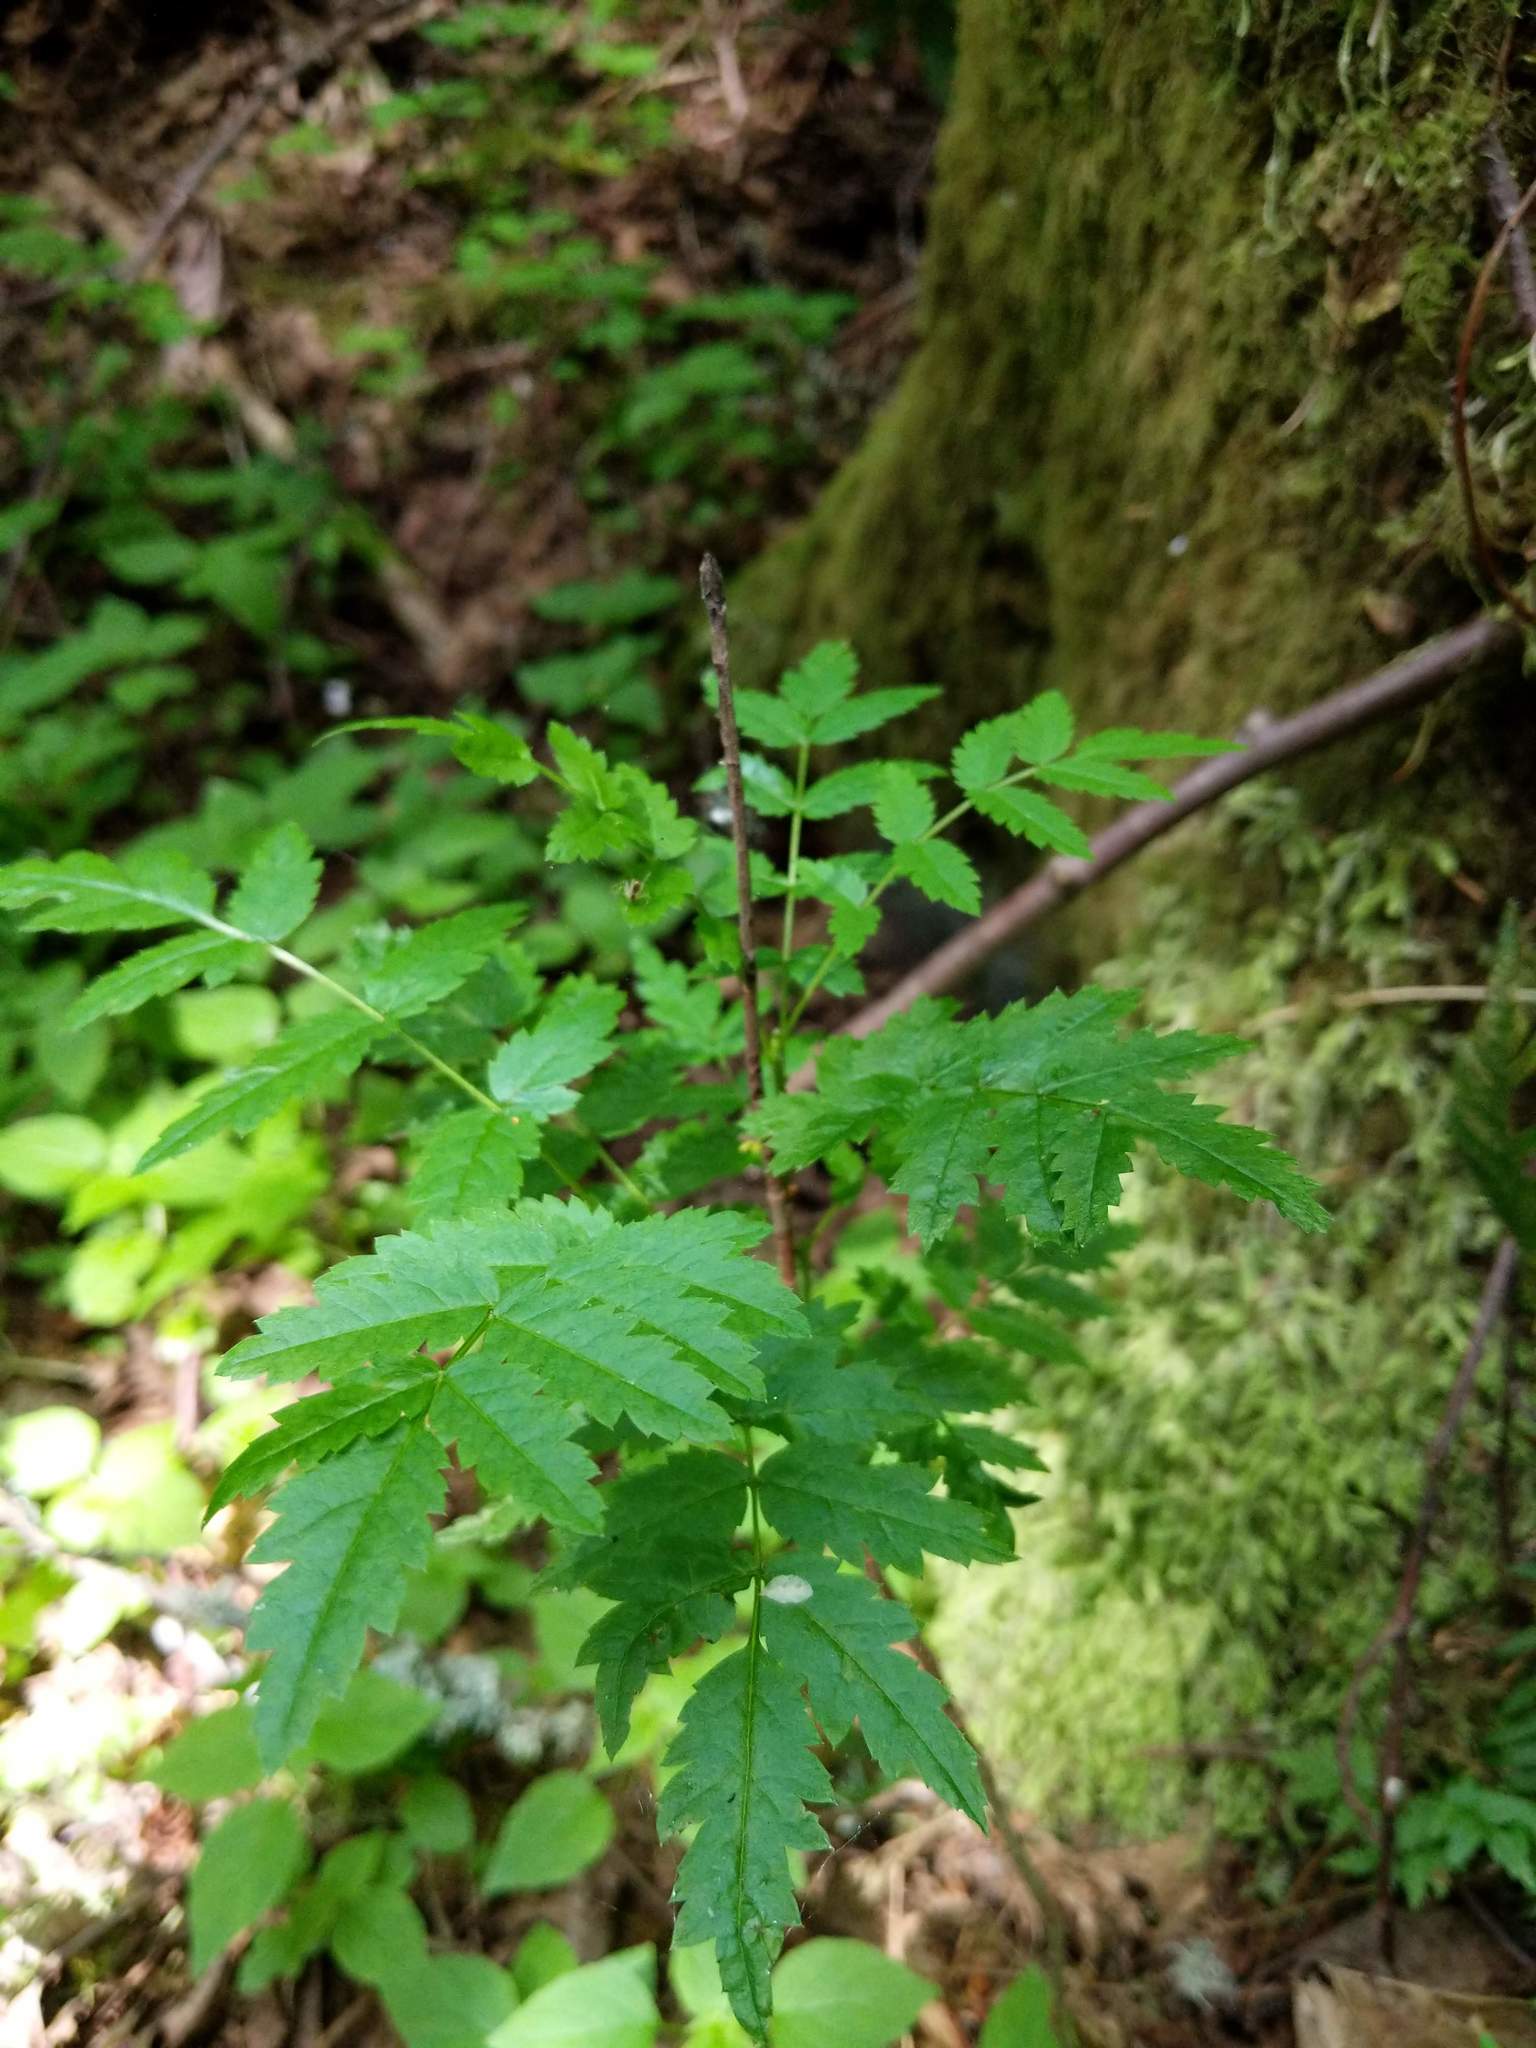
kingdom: Plantae
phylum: Tracheophyta
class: Magnoliopsida
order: Rosales
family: Rosaceae
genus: Sorbus
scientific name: Sorbus aucuparia
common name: Rowan
